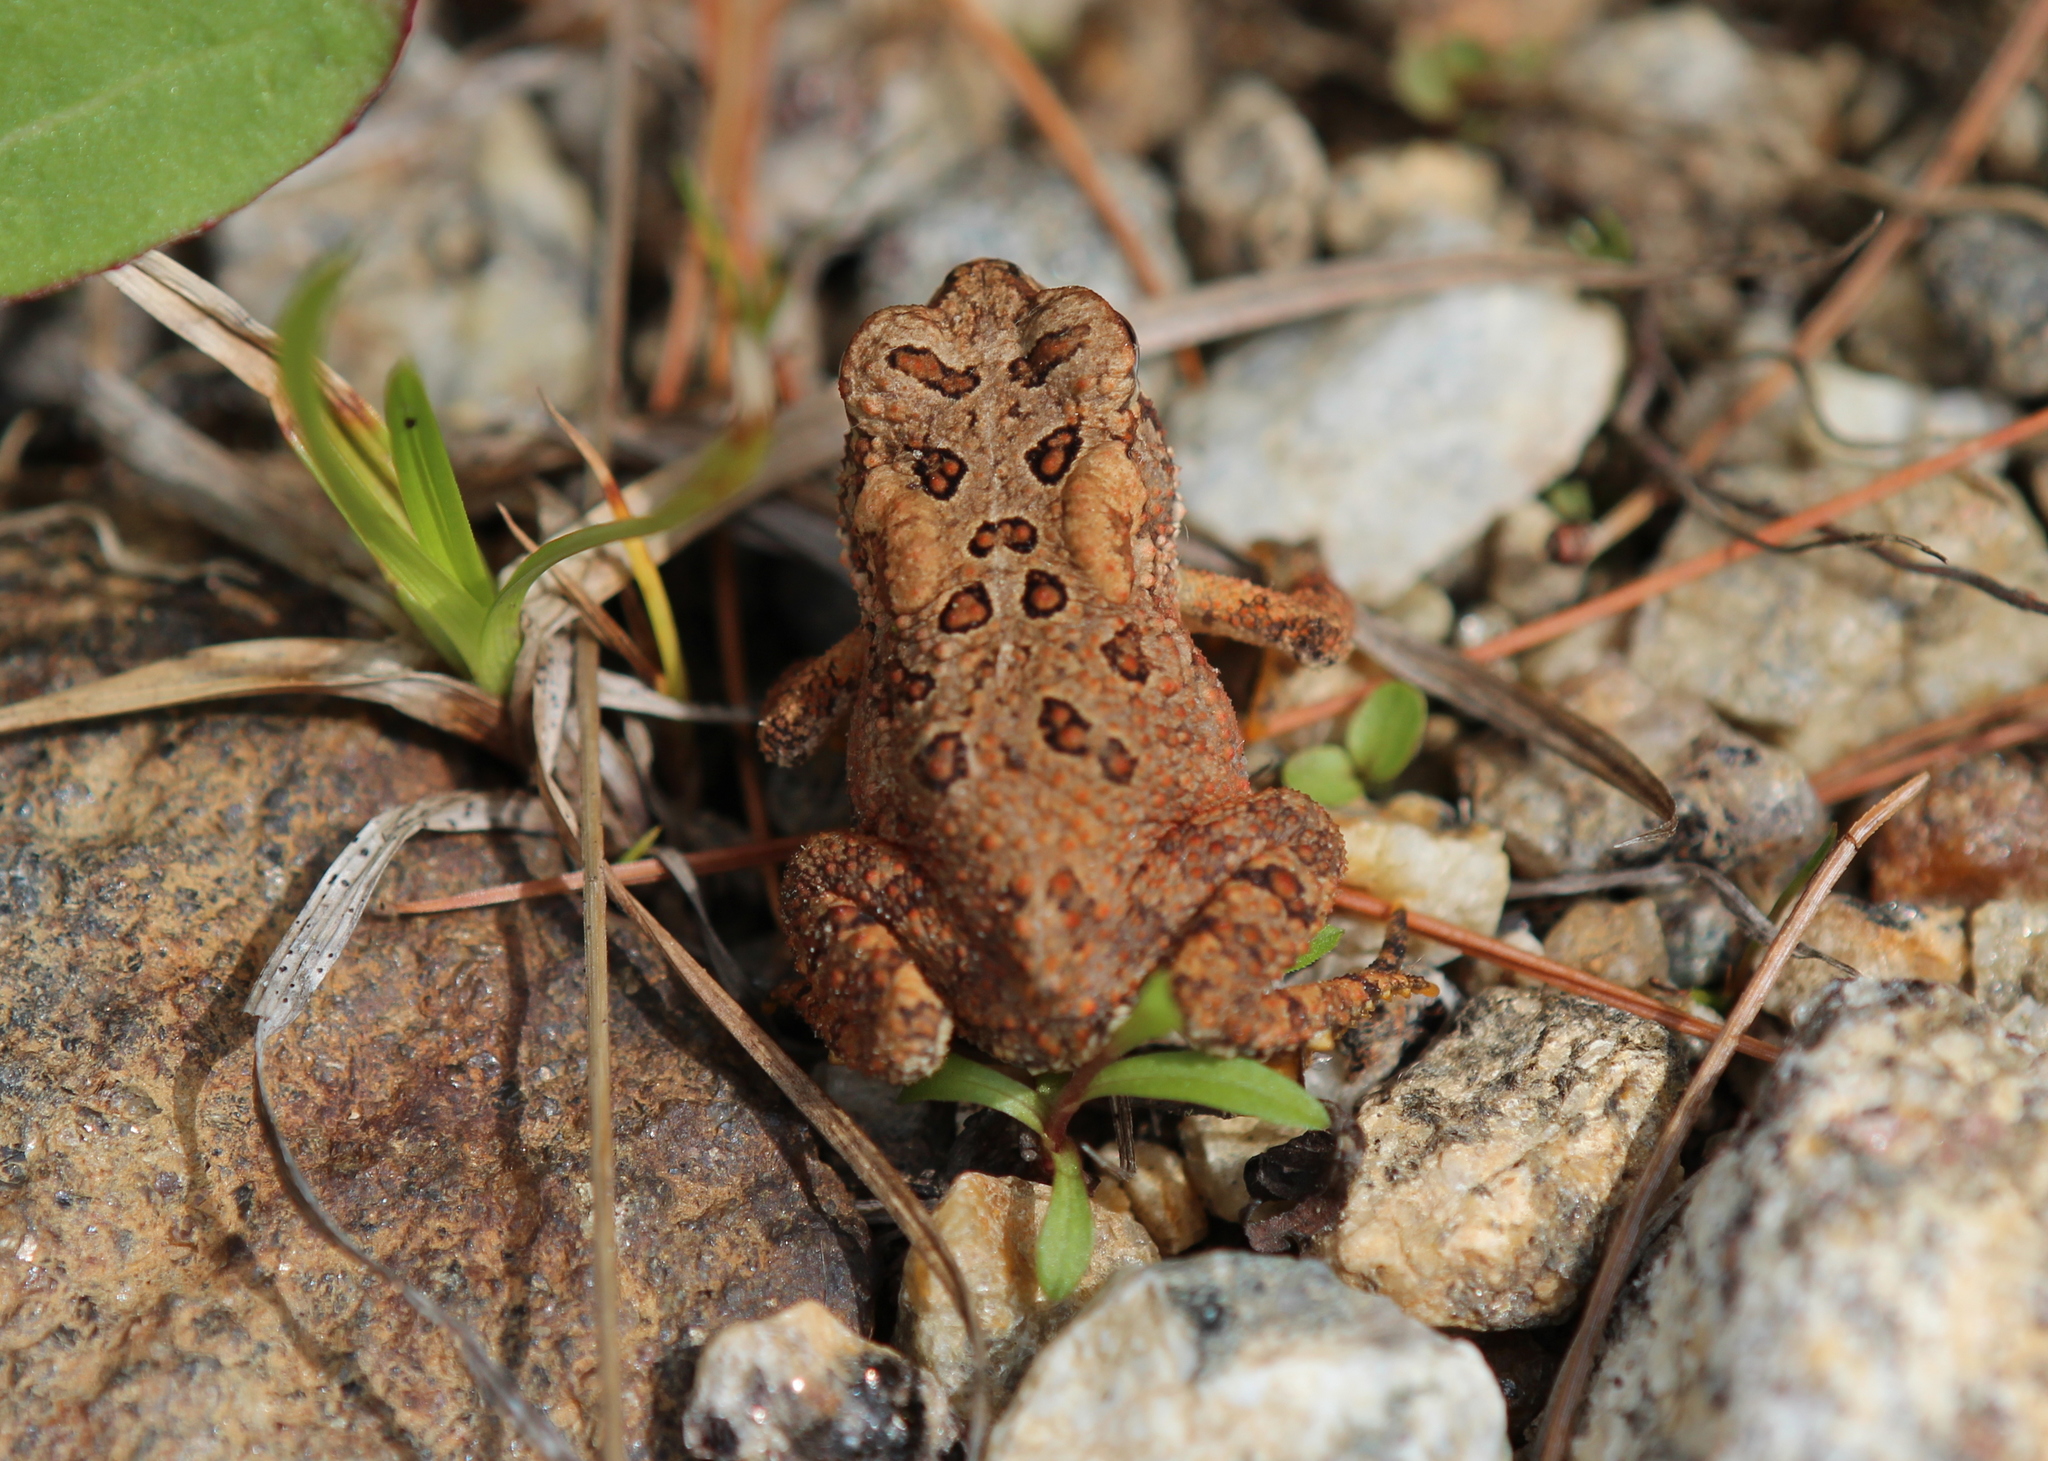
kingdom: Animalia
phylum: Chordata
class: Amphibia
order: Anura
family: Bufonidae
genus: Anaxyrus
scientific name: Anaxyrus americanus
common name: American toad
